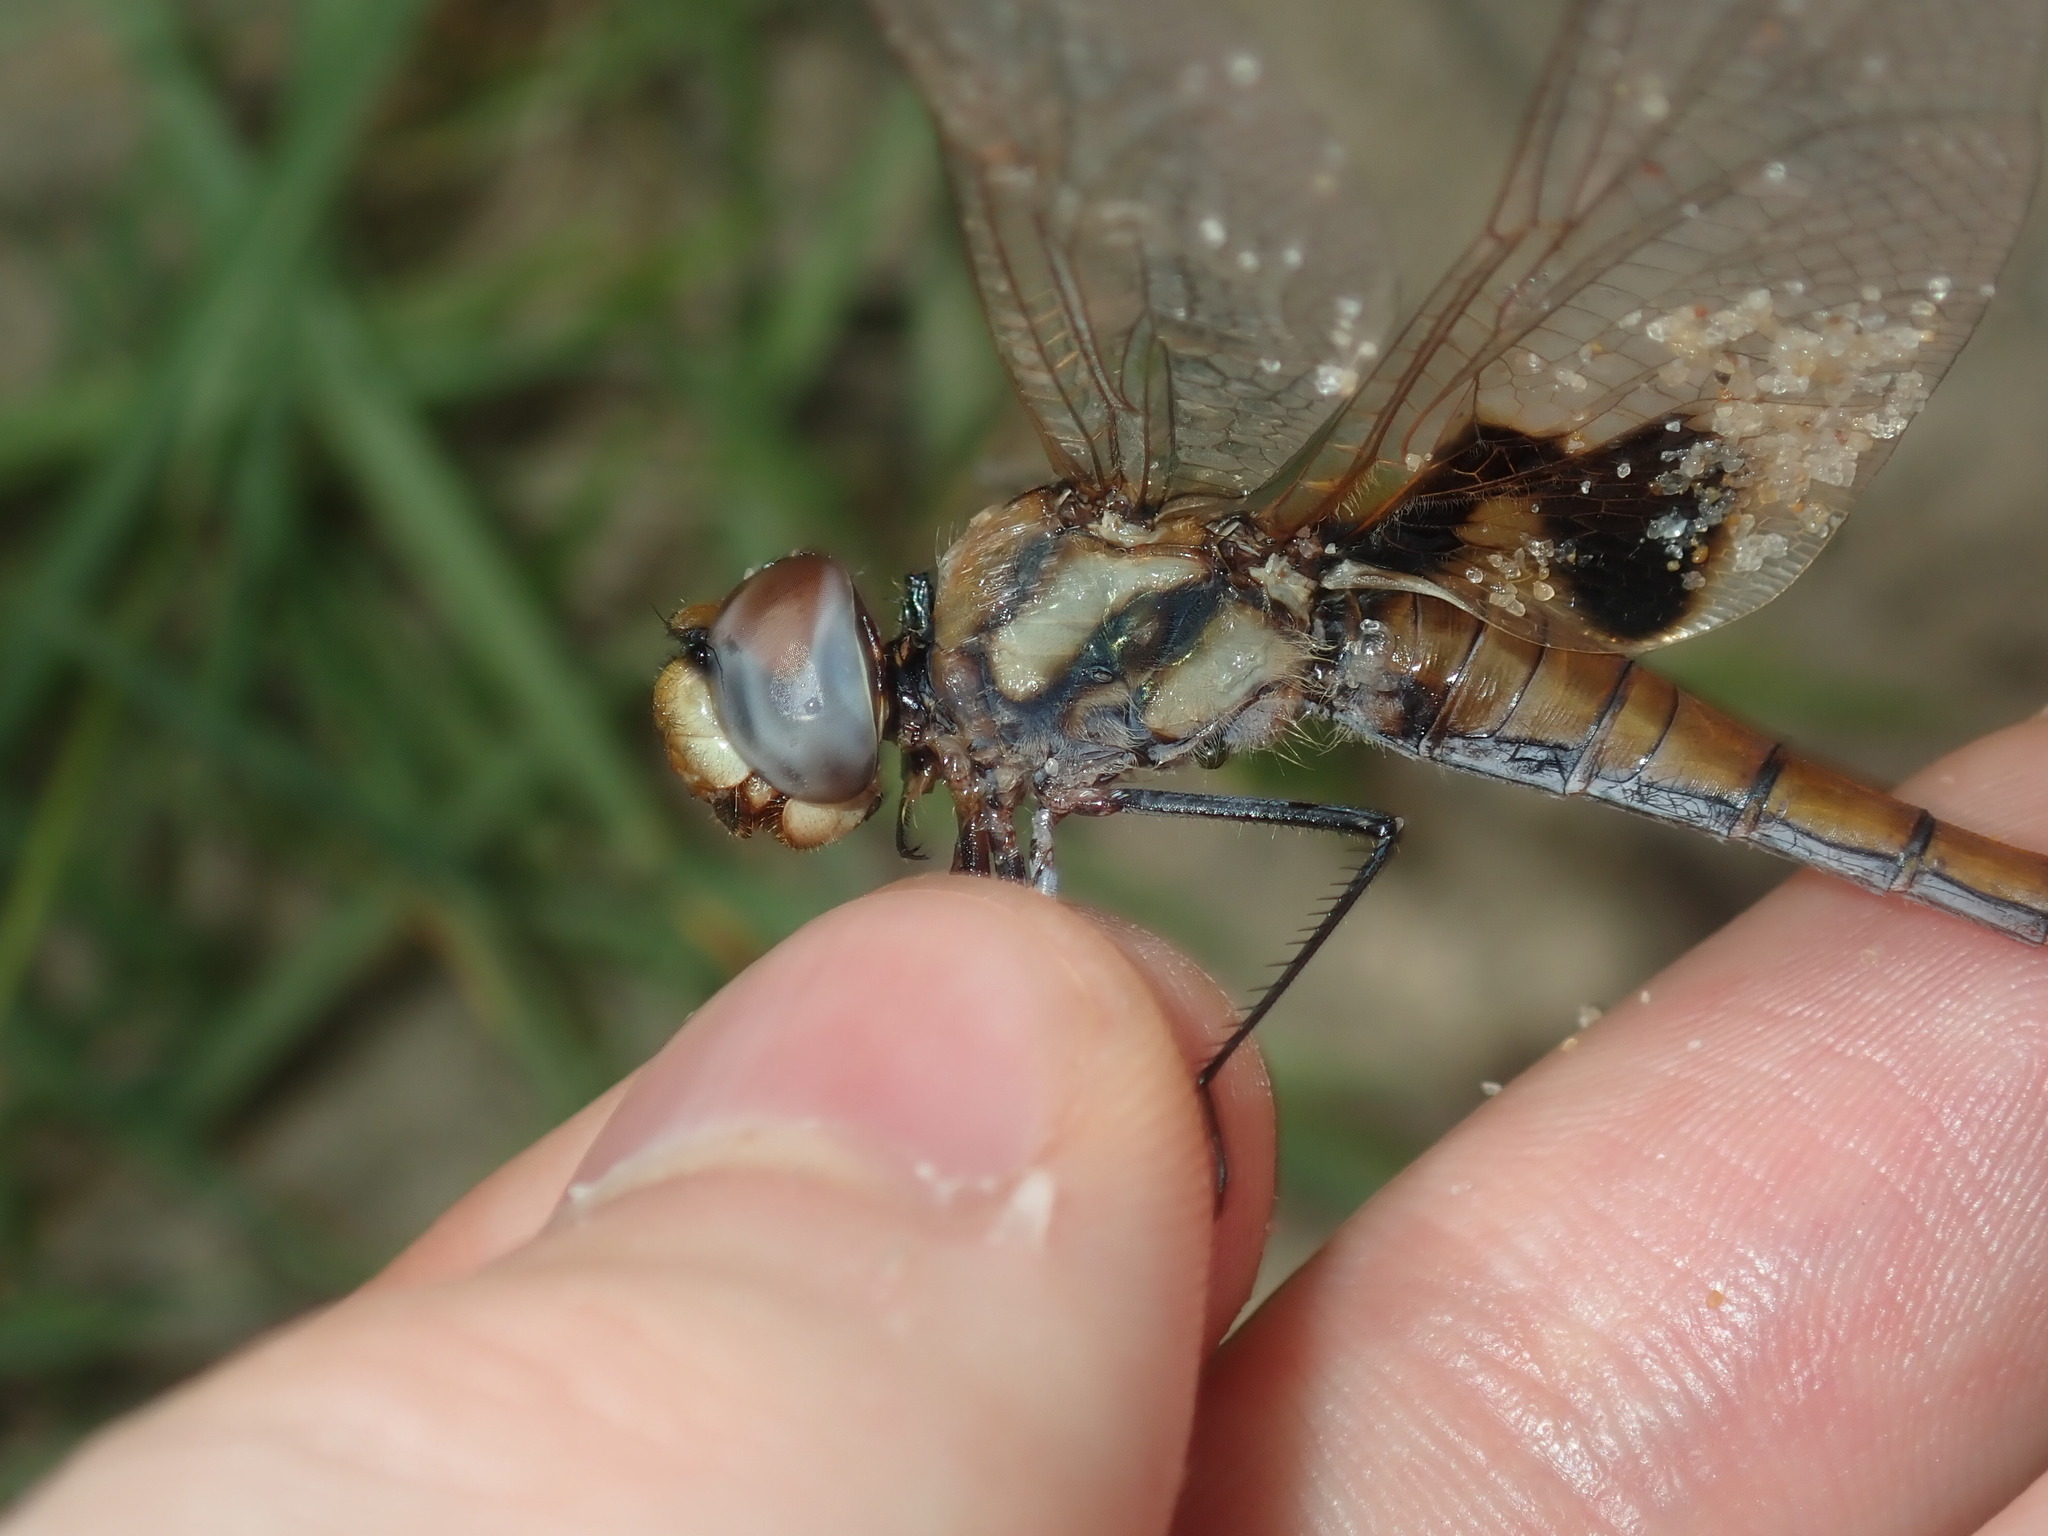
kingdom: Animalia
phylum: Arthropoda
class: Insecta
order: Odonata
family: Libellulidae
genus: Tramea
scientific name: Tramea loewii
